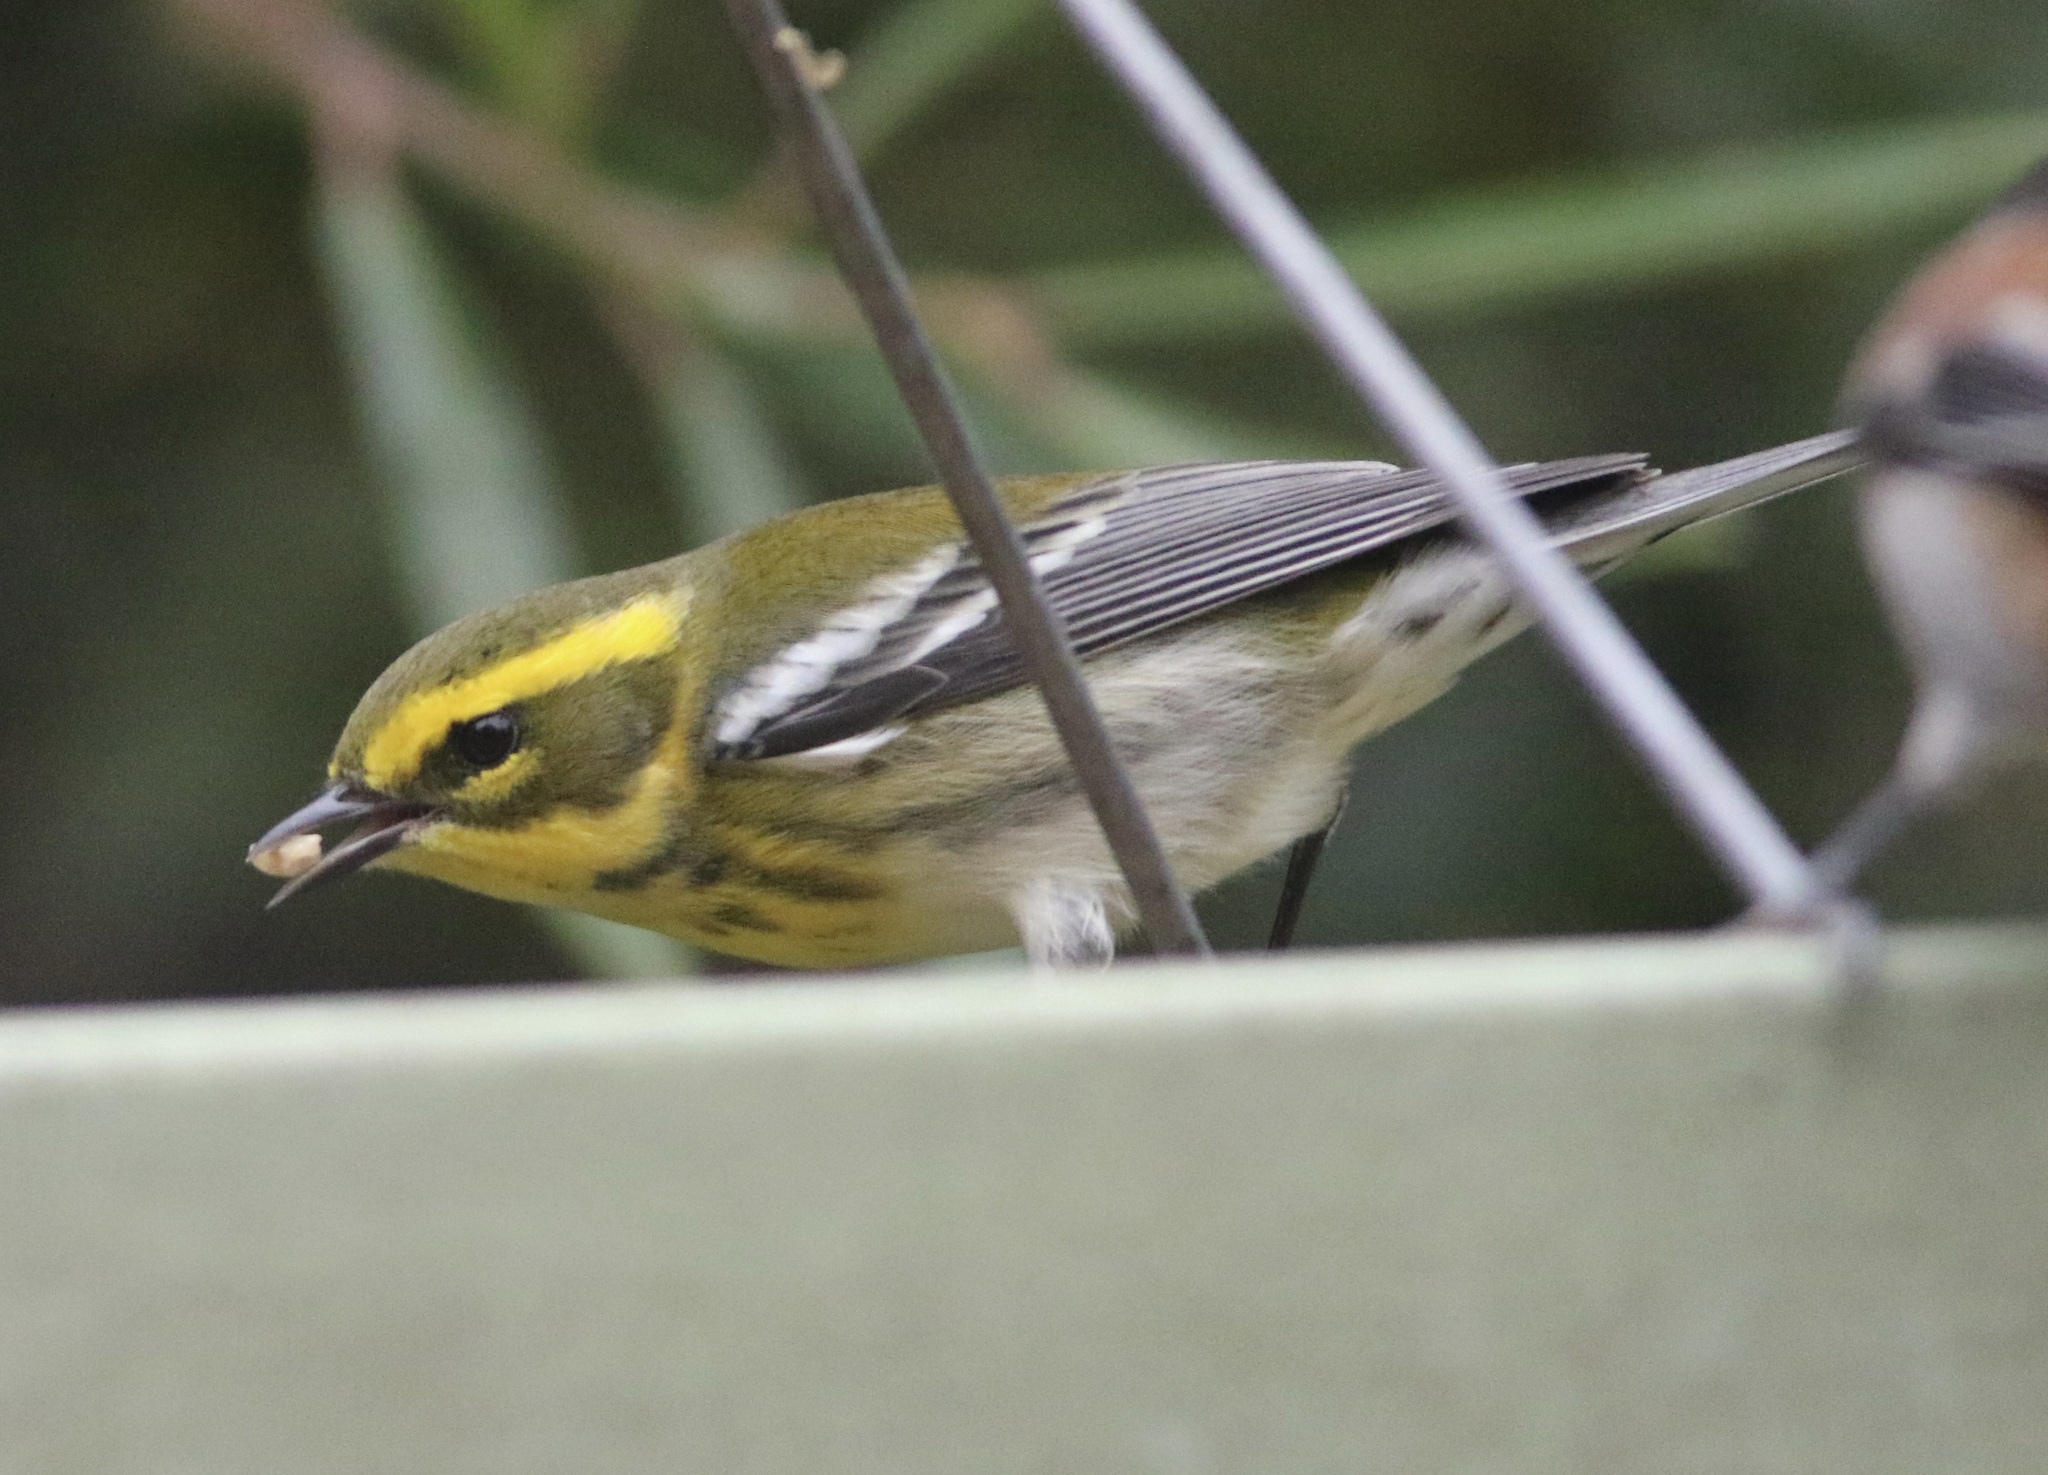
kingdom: Animalia
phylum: Chordata
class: Aves
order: Passeriformes
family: Parulidae
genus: Setophaga
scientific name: Setophaga townsendi
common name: Townsend's warbler
